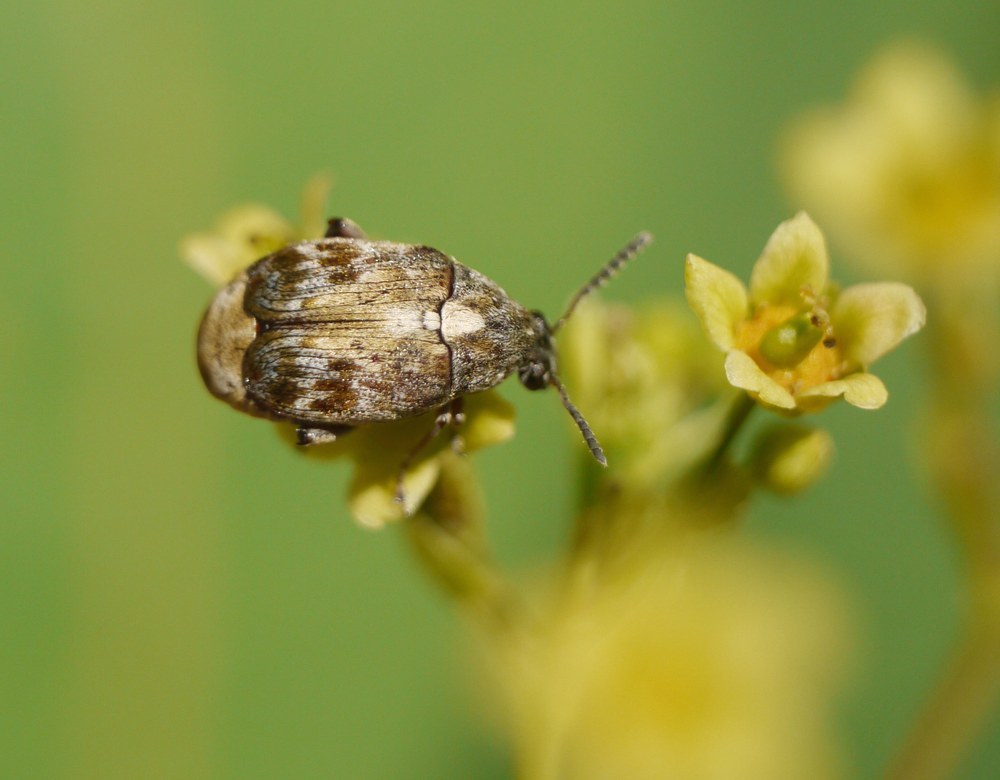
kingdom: Animalia
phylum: Arthropoda
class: Insecta
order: Coleoptera
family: Chrysomelidae
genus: Megabruchidius
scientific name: Megabruchidius dorsalis
